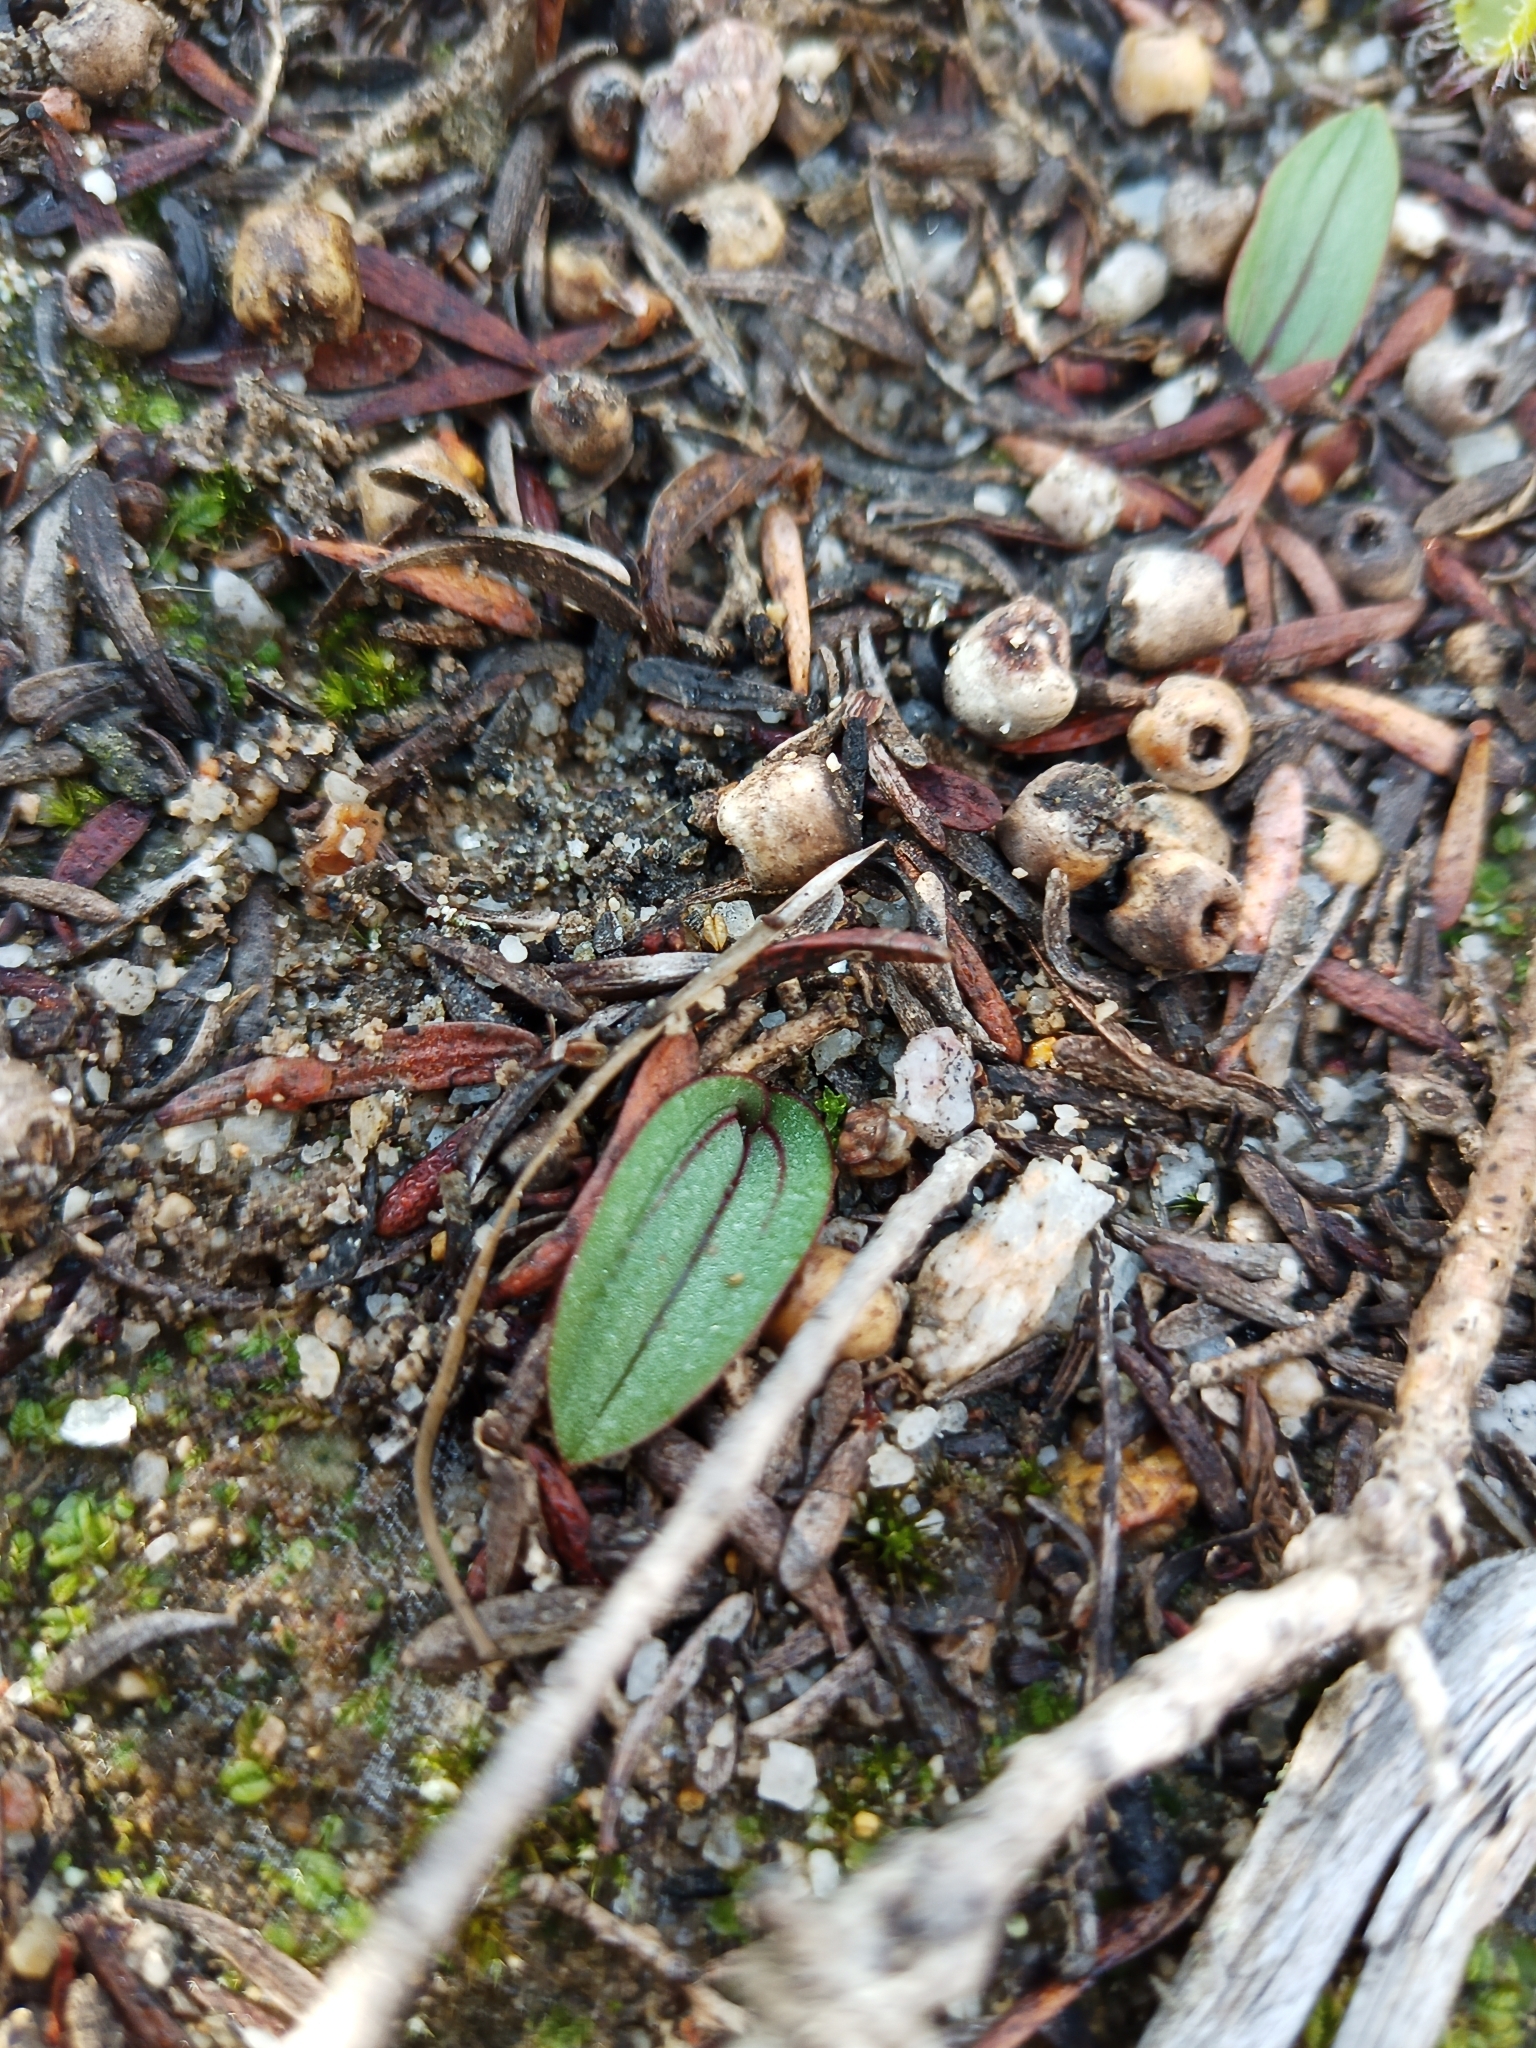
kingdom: Plantae
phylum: Tracheophyta
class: Liliopsida
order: Asparagales
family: Orchidaceae
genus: Leporella
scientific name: Leporella fimbriata
